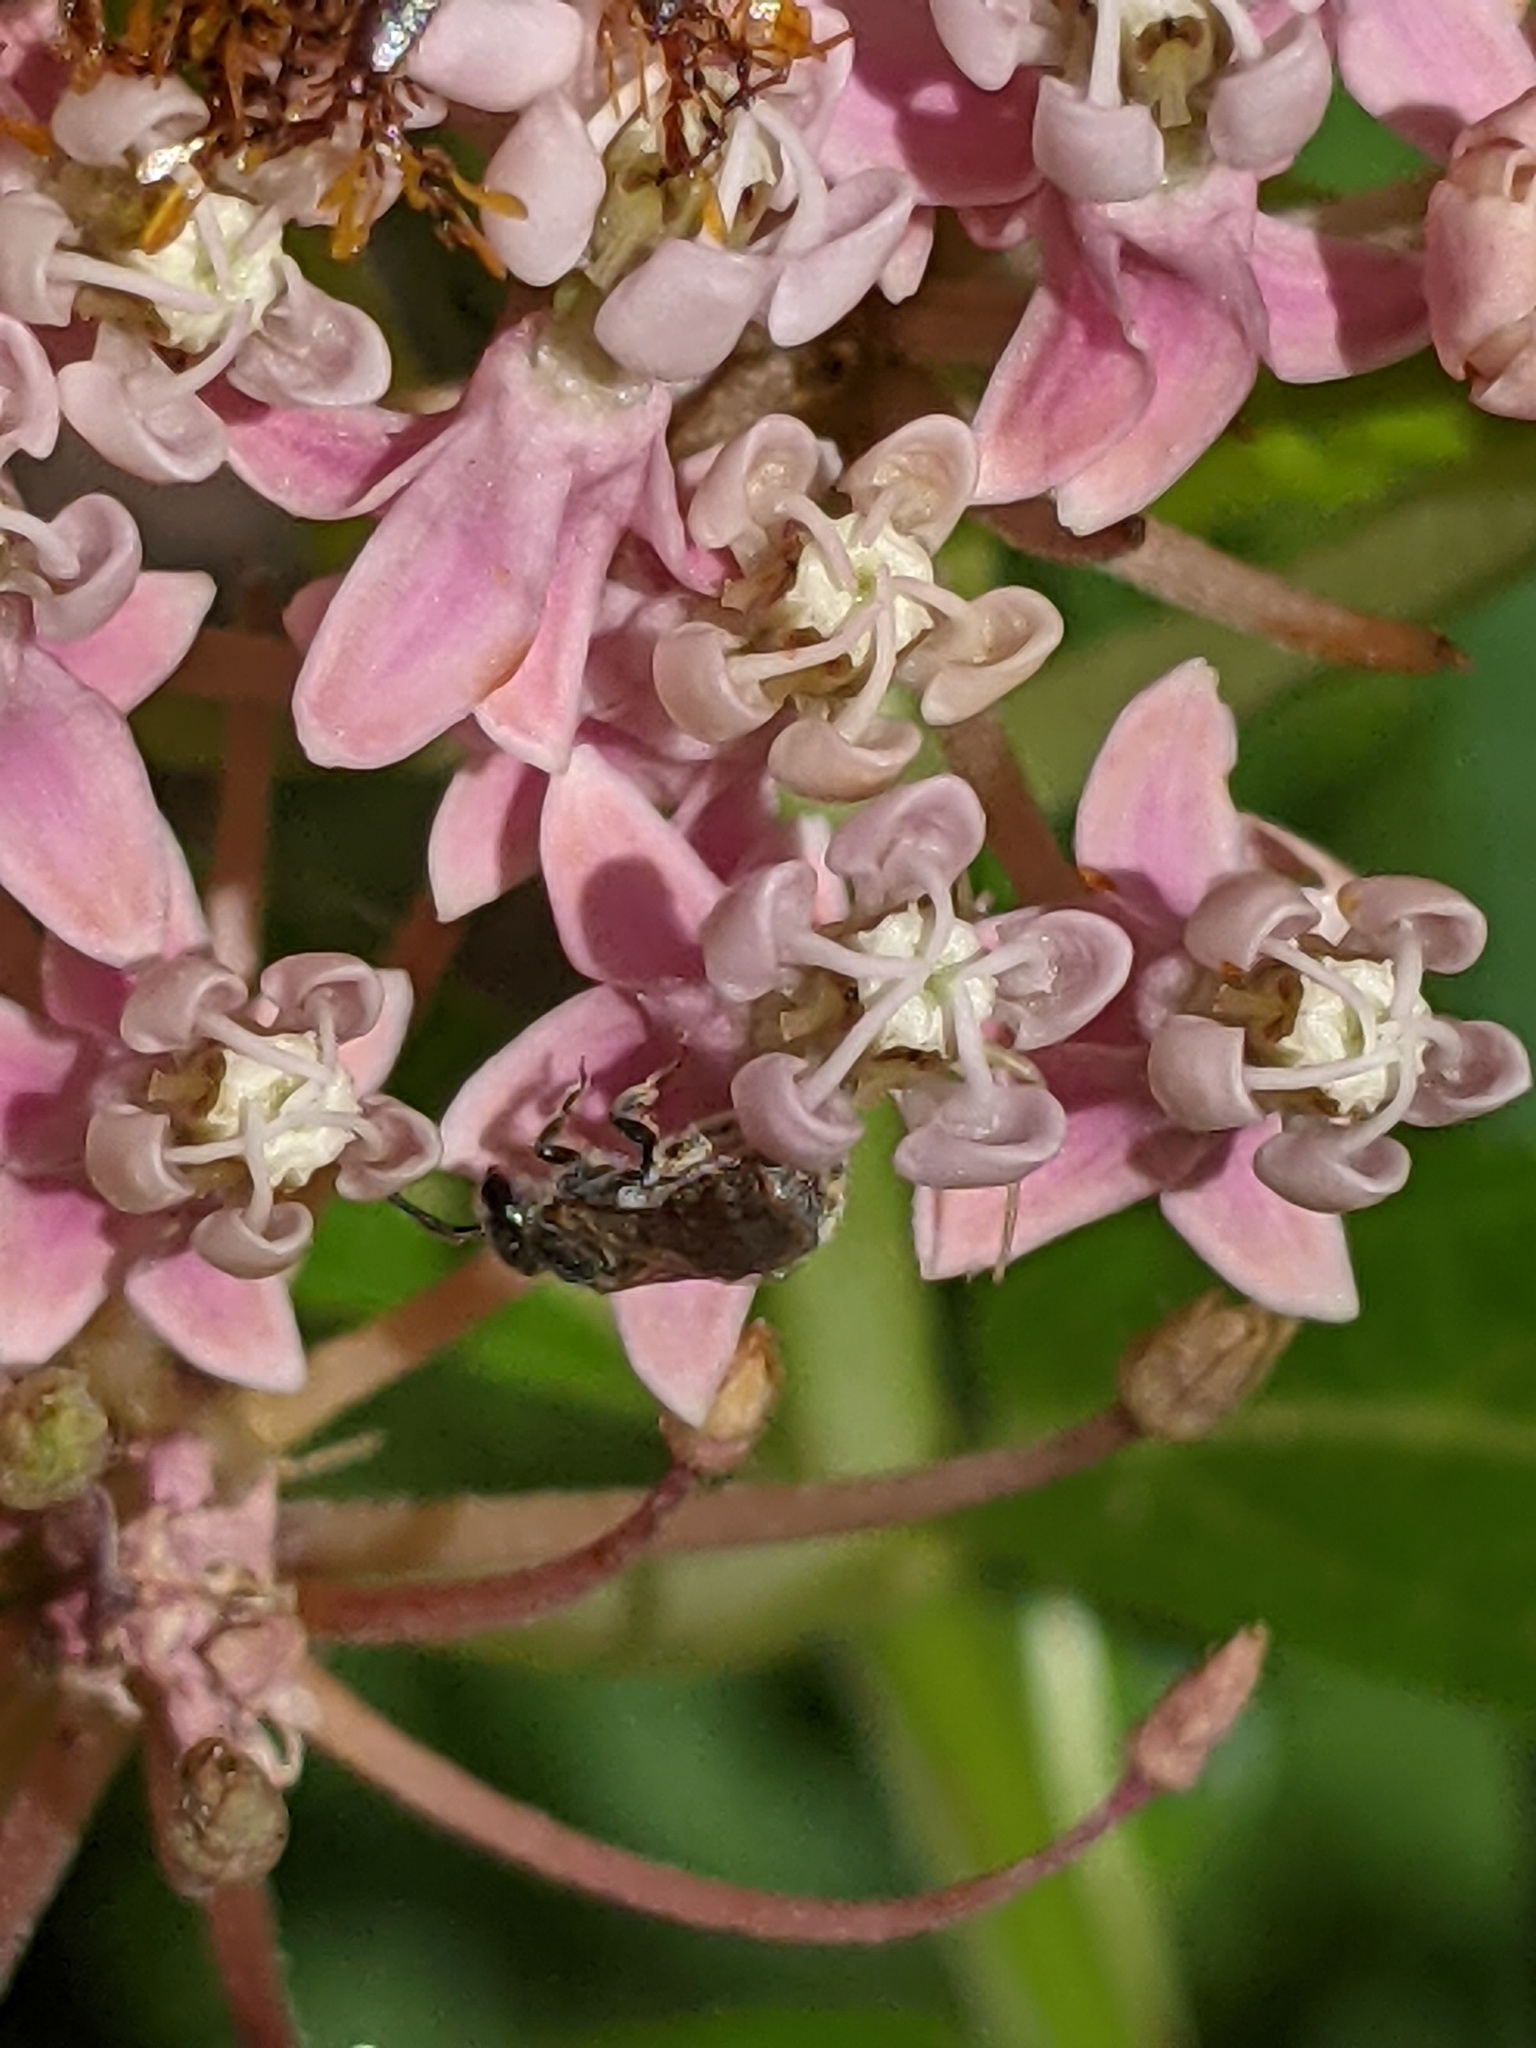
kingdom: Animalia
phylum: Arthropoda
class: Insecta
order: Hymenoptera
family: Halictidae
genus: Dialictus
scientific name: Dialictus
